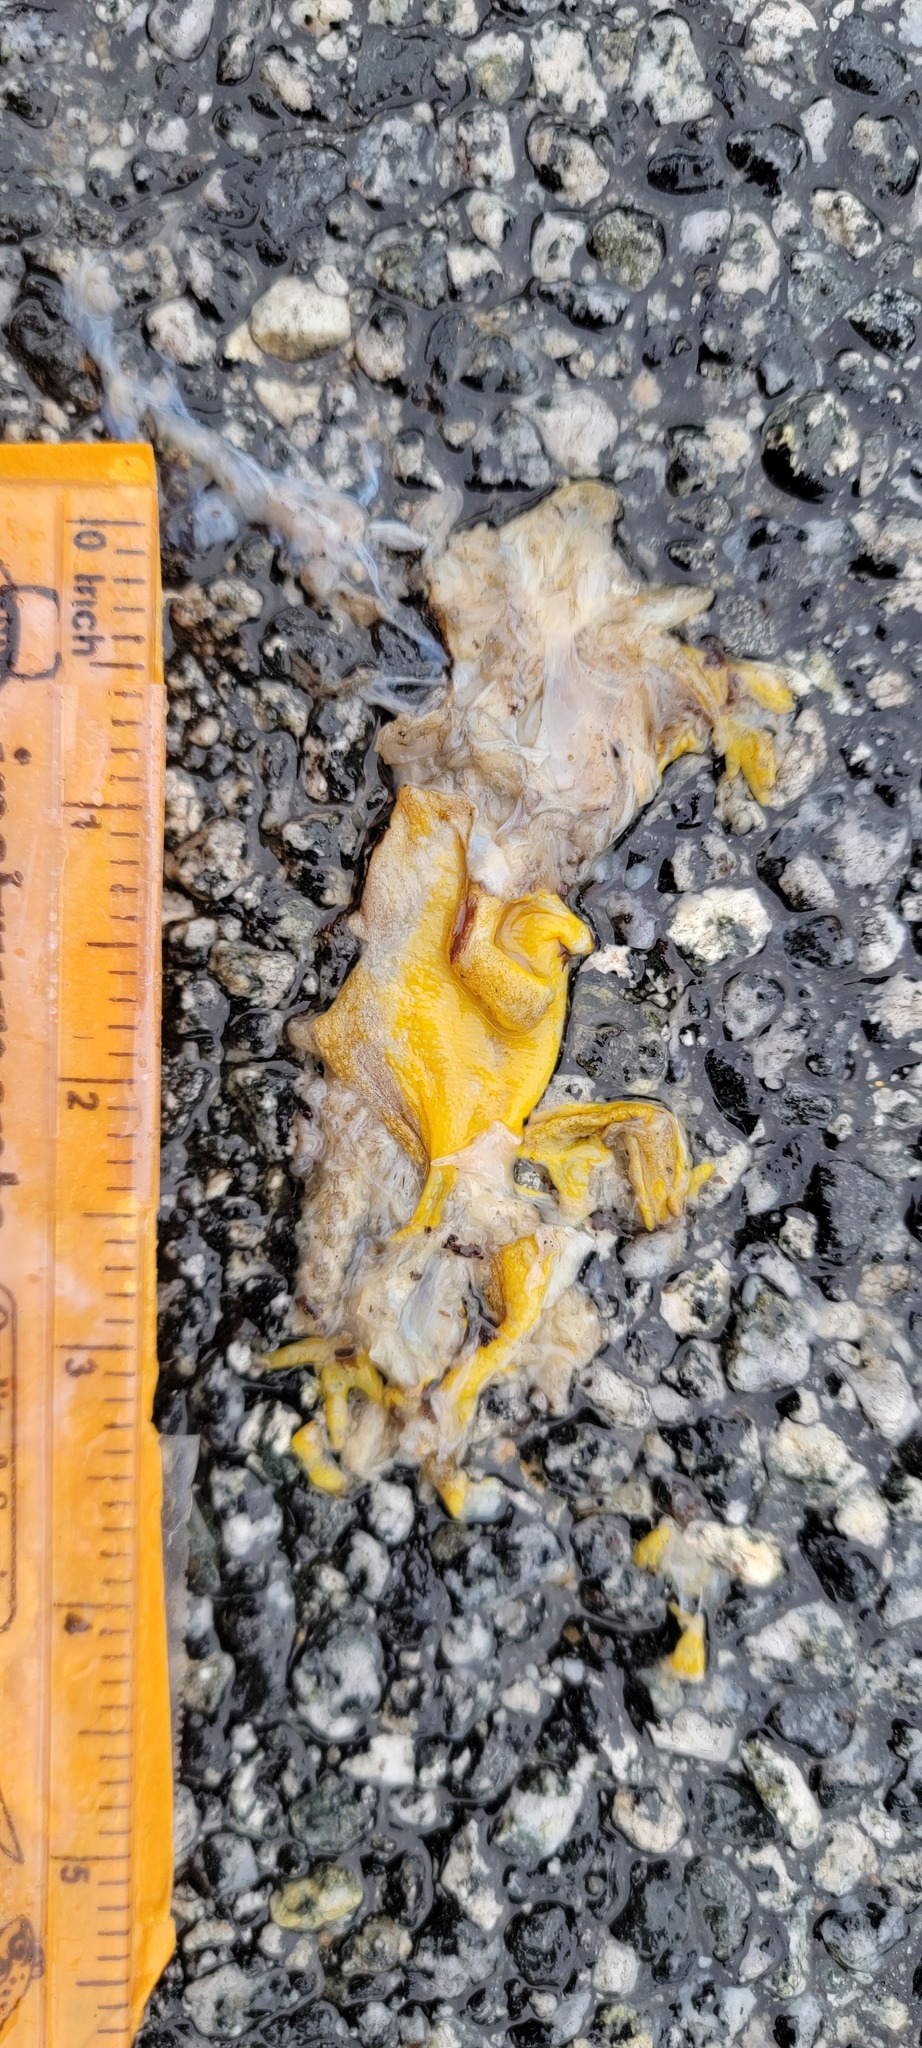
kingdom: Animalia
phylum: Chordata
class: Amphibia
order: Caudata
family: Salamandridae
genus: Taricha
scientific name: Taricha
